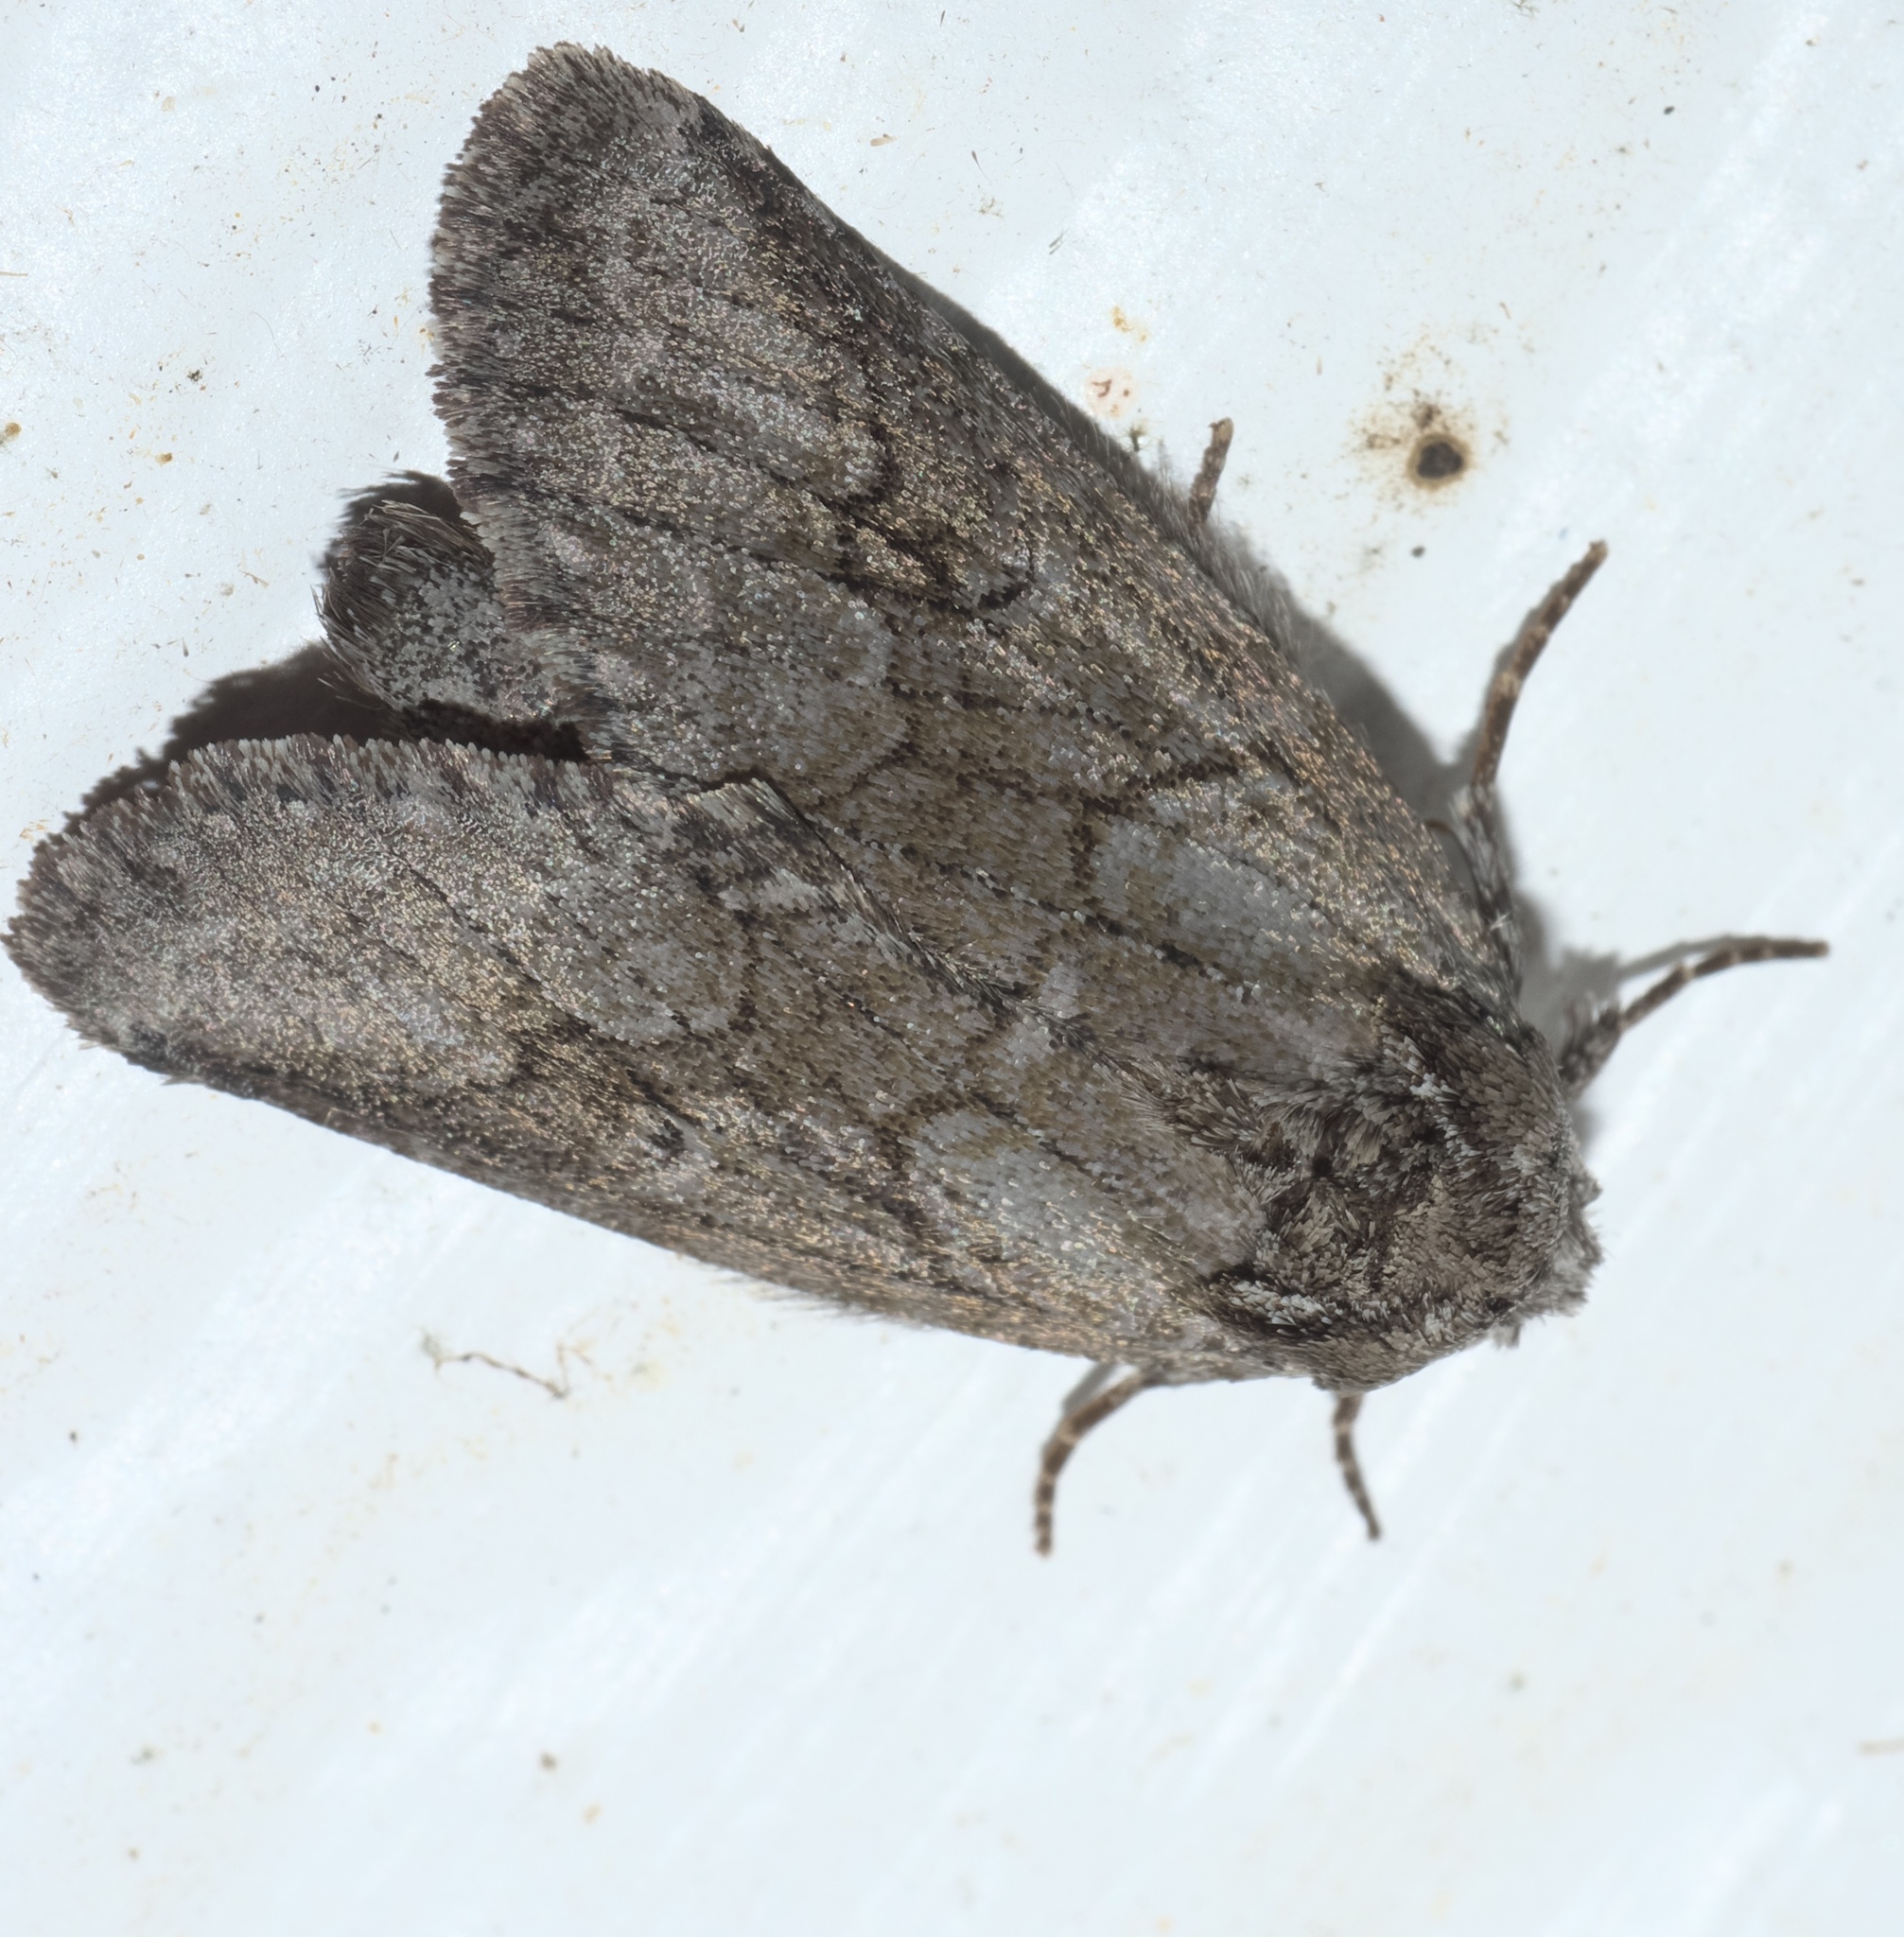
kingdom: Animalia
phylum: Arthropoda
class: Insecta
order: Lepidoptera
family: Notodontidae
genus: Lochmaeus
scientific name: Lochmaeus bilineata
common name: Double-lined prominent
